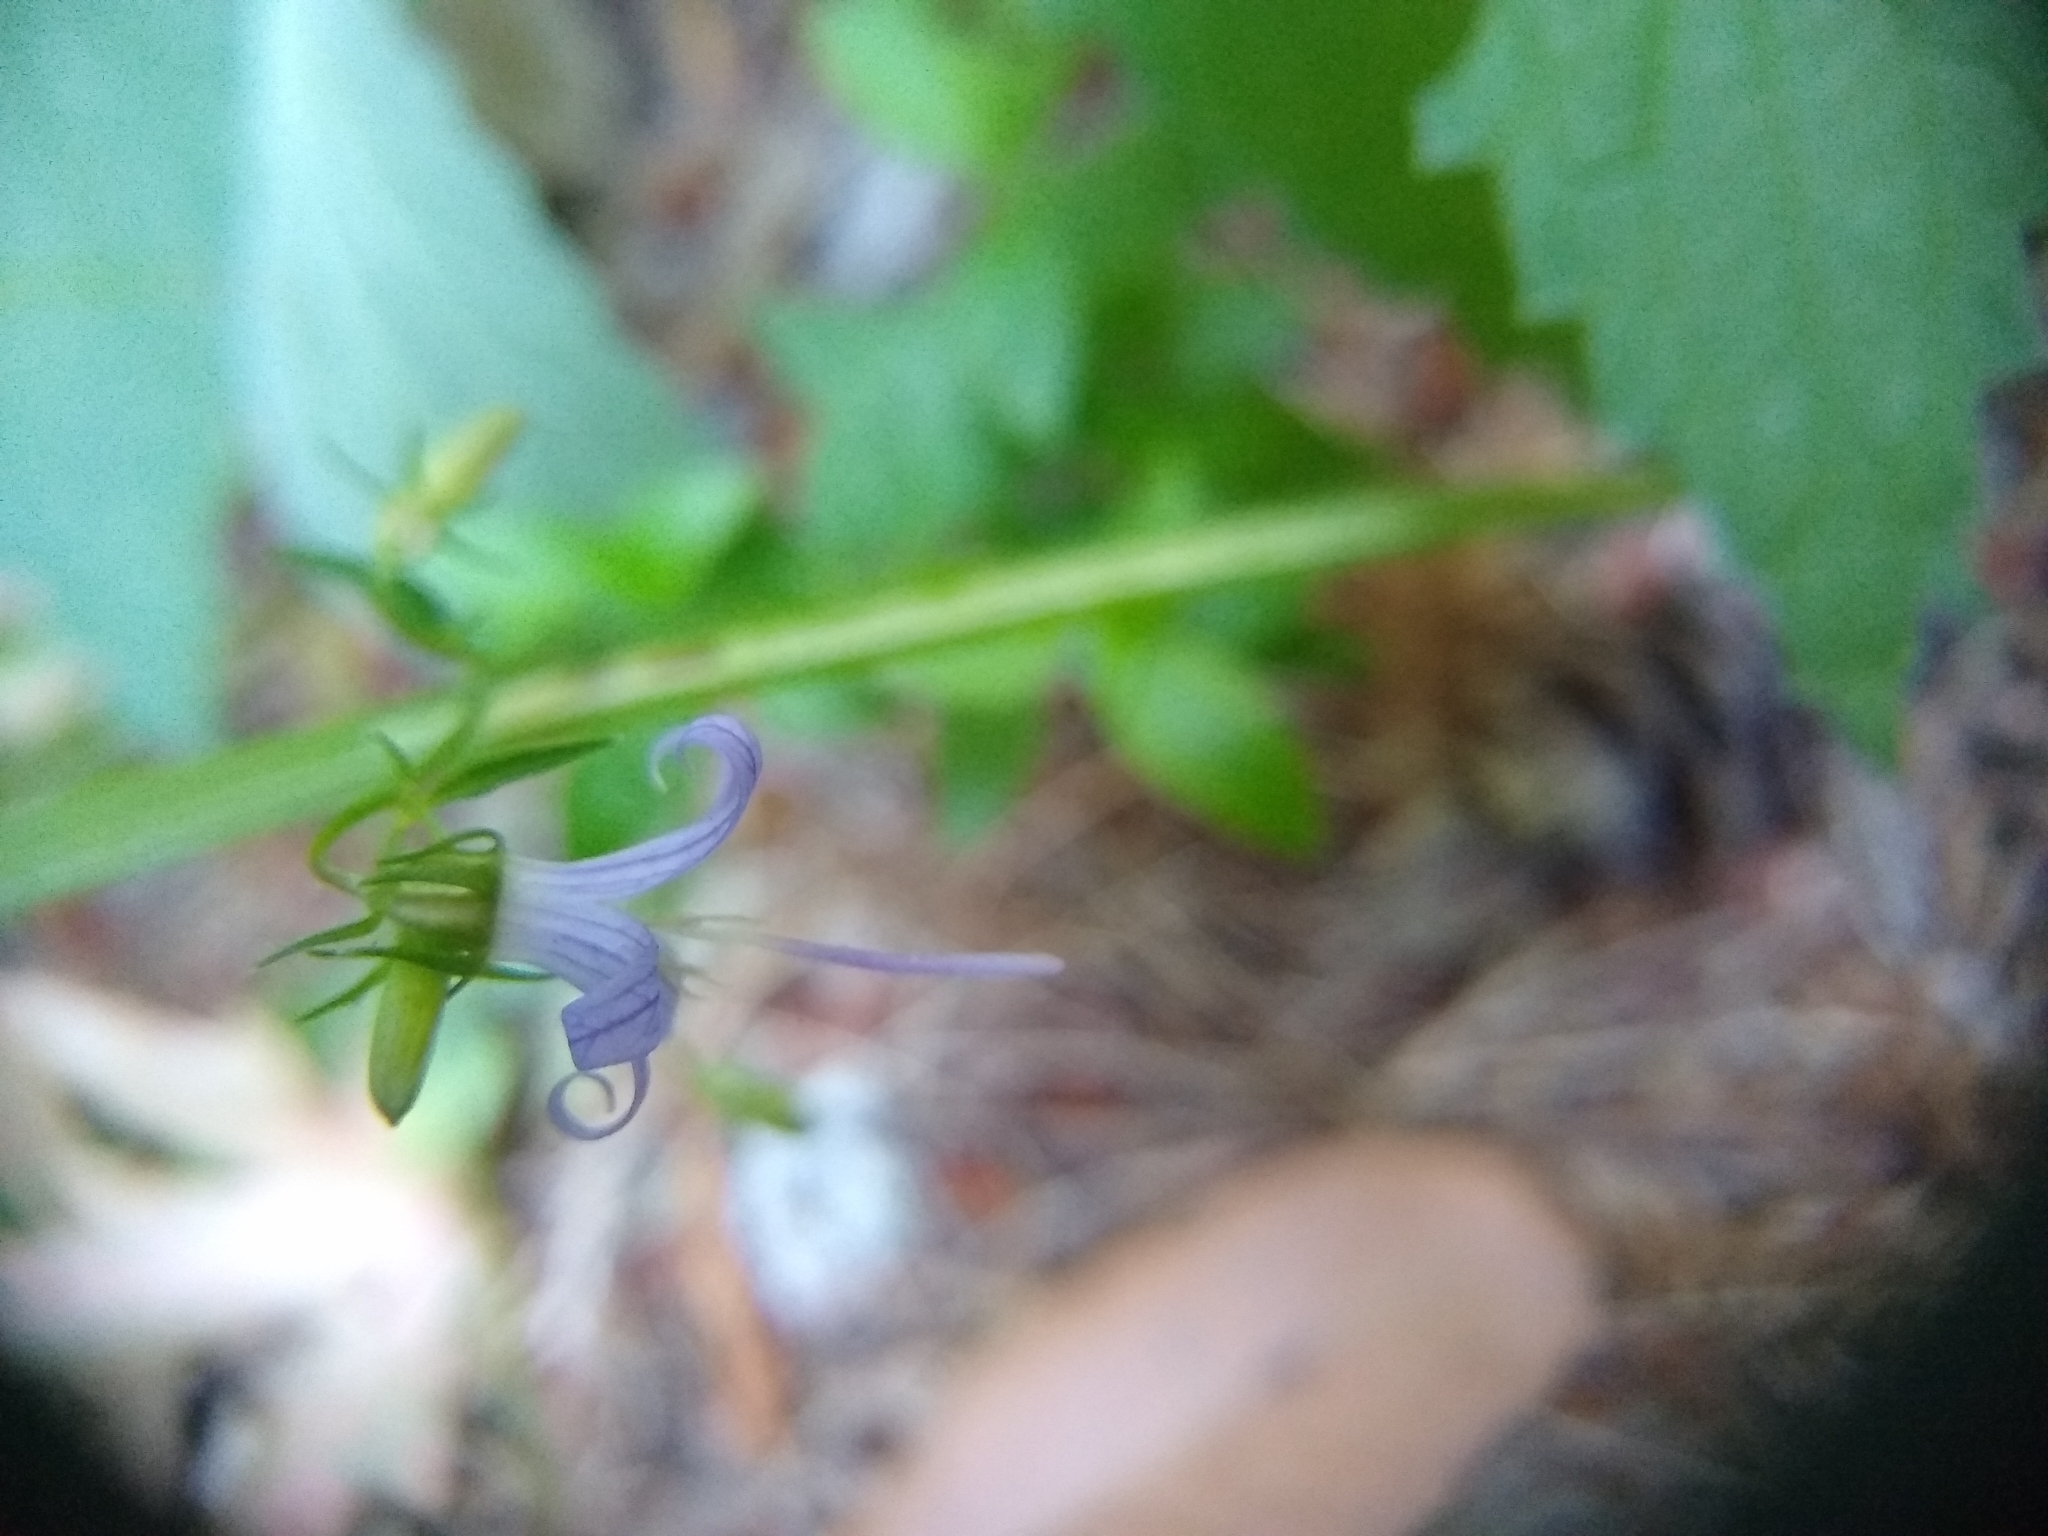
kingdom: Plantae
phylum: Tracheophyta
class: Magnoliopsida
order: Asterales
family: Campanulaceae
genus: Smithiastrum
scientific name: Smithiastrum prenanthoides
